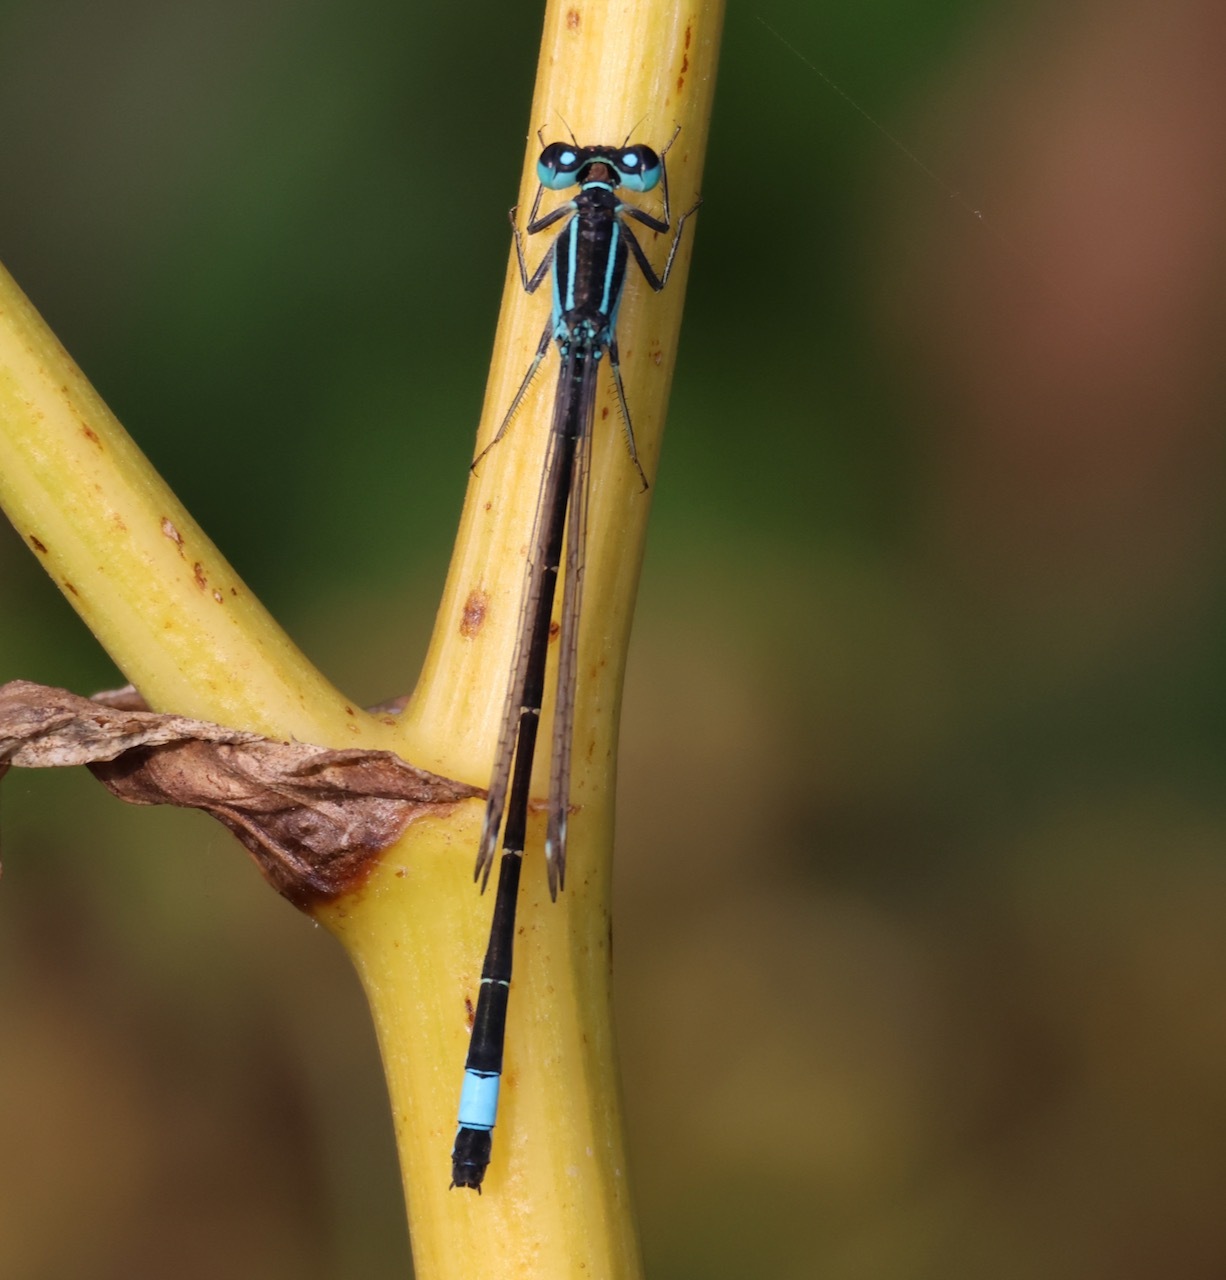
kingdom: Animalia
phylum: Arthropoda
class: Insecta
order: Odonata
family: Coenagrionidae
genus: Ischnura
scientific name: Ischnura elegans
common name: Blue-tailed damselfly
